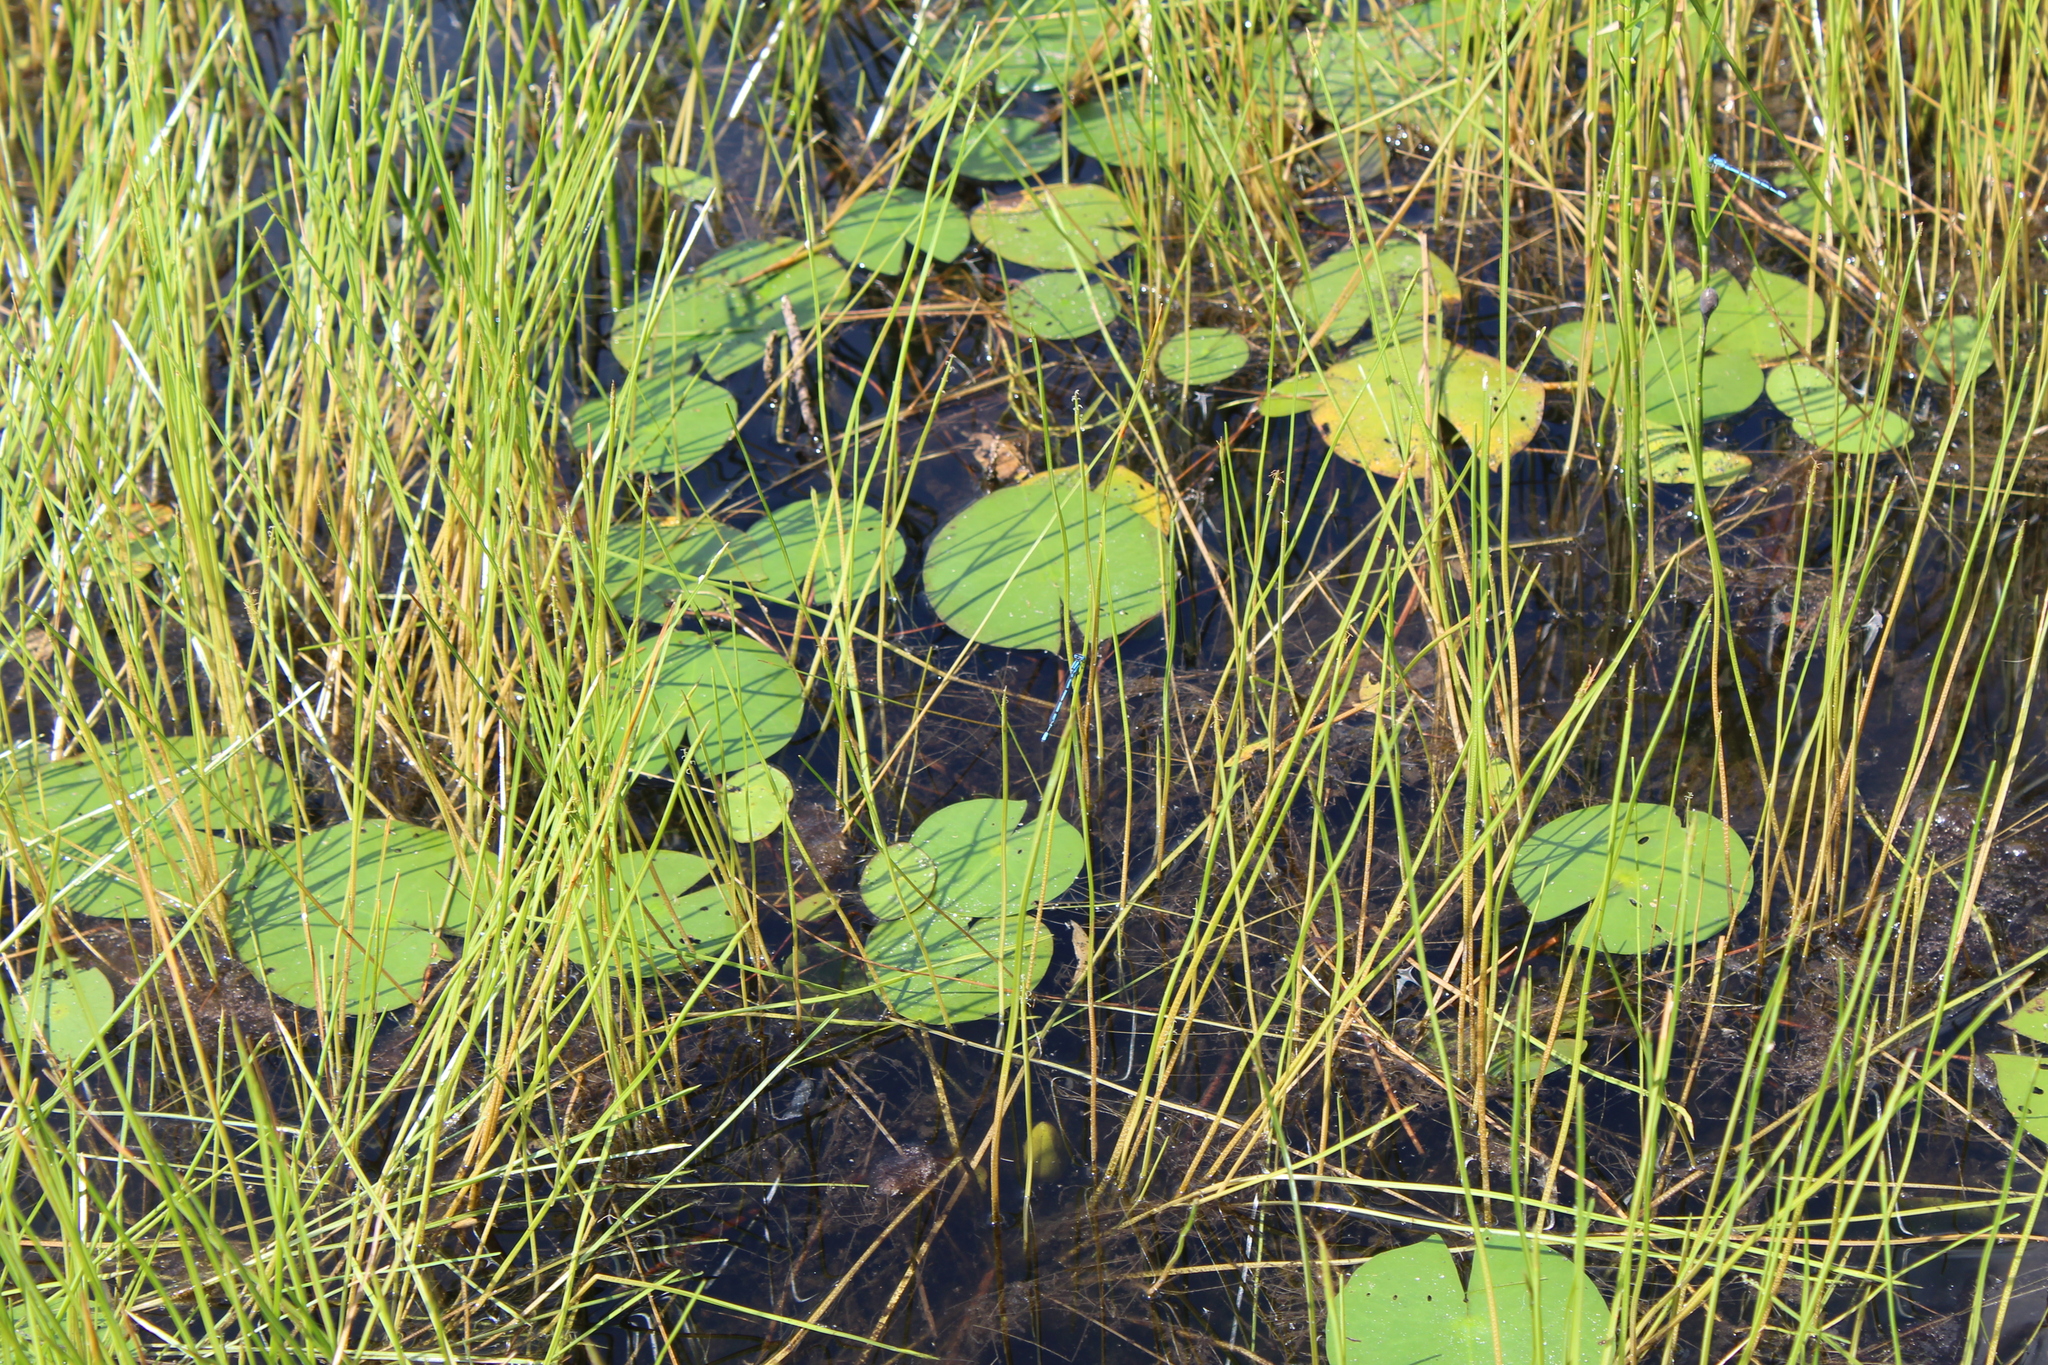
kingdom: Plantae
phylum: Tracheophyta
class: Liliopsida
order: Poales
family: Cyperaceae
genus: Eleocharis
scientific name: Eleocharis robbinsii
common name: Robbins' spikerush
